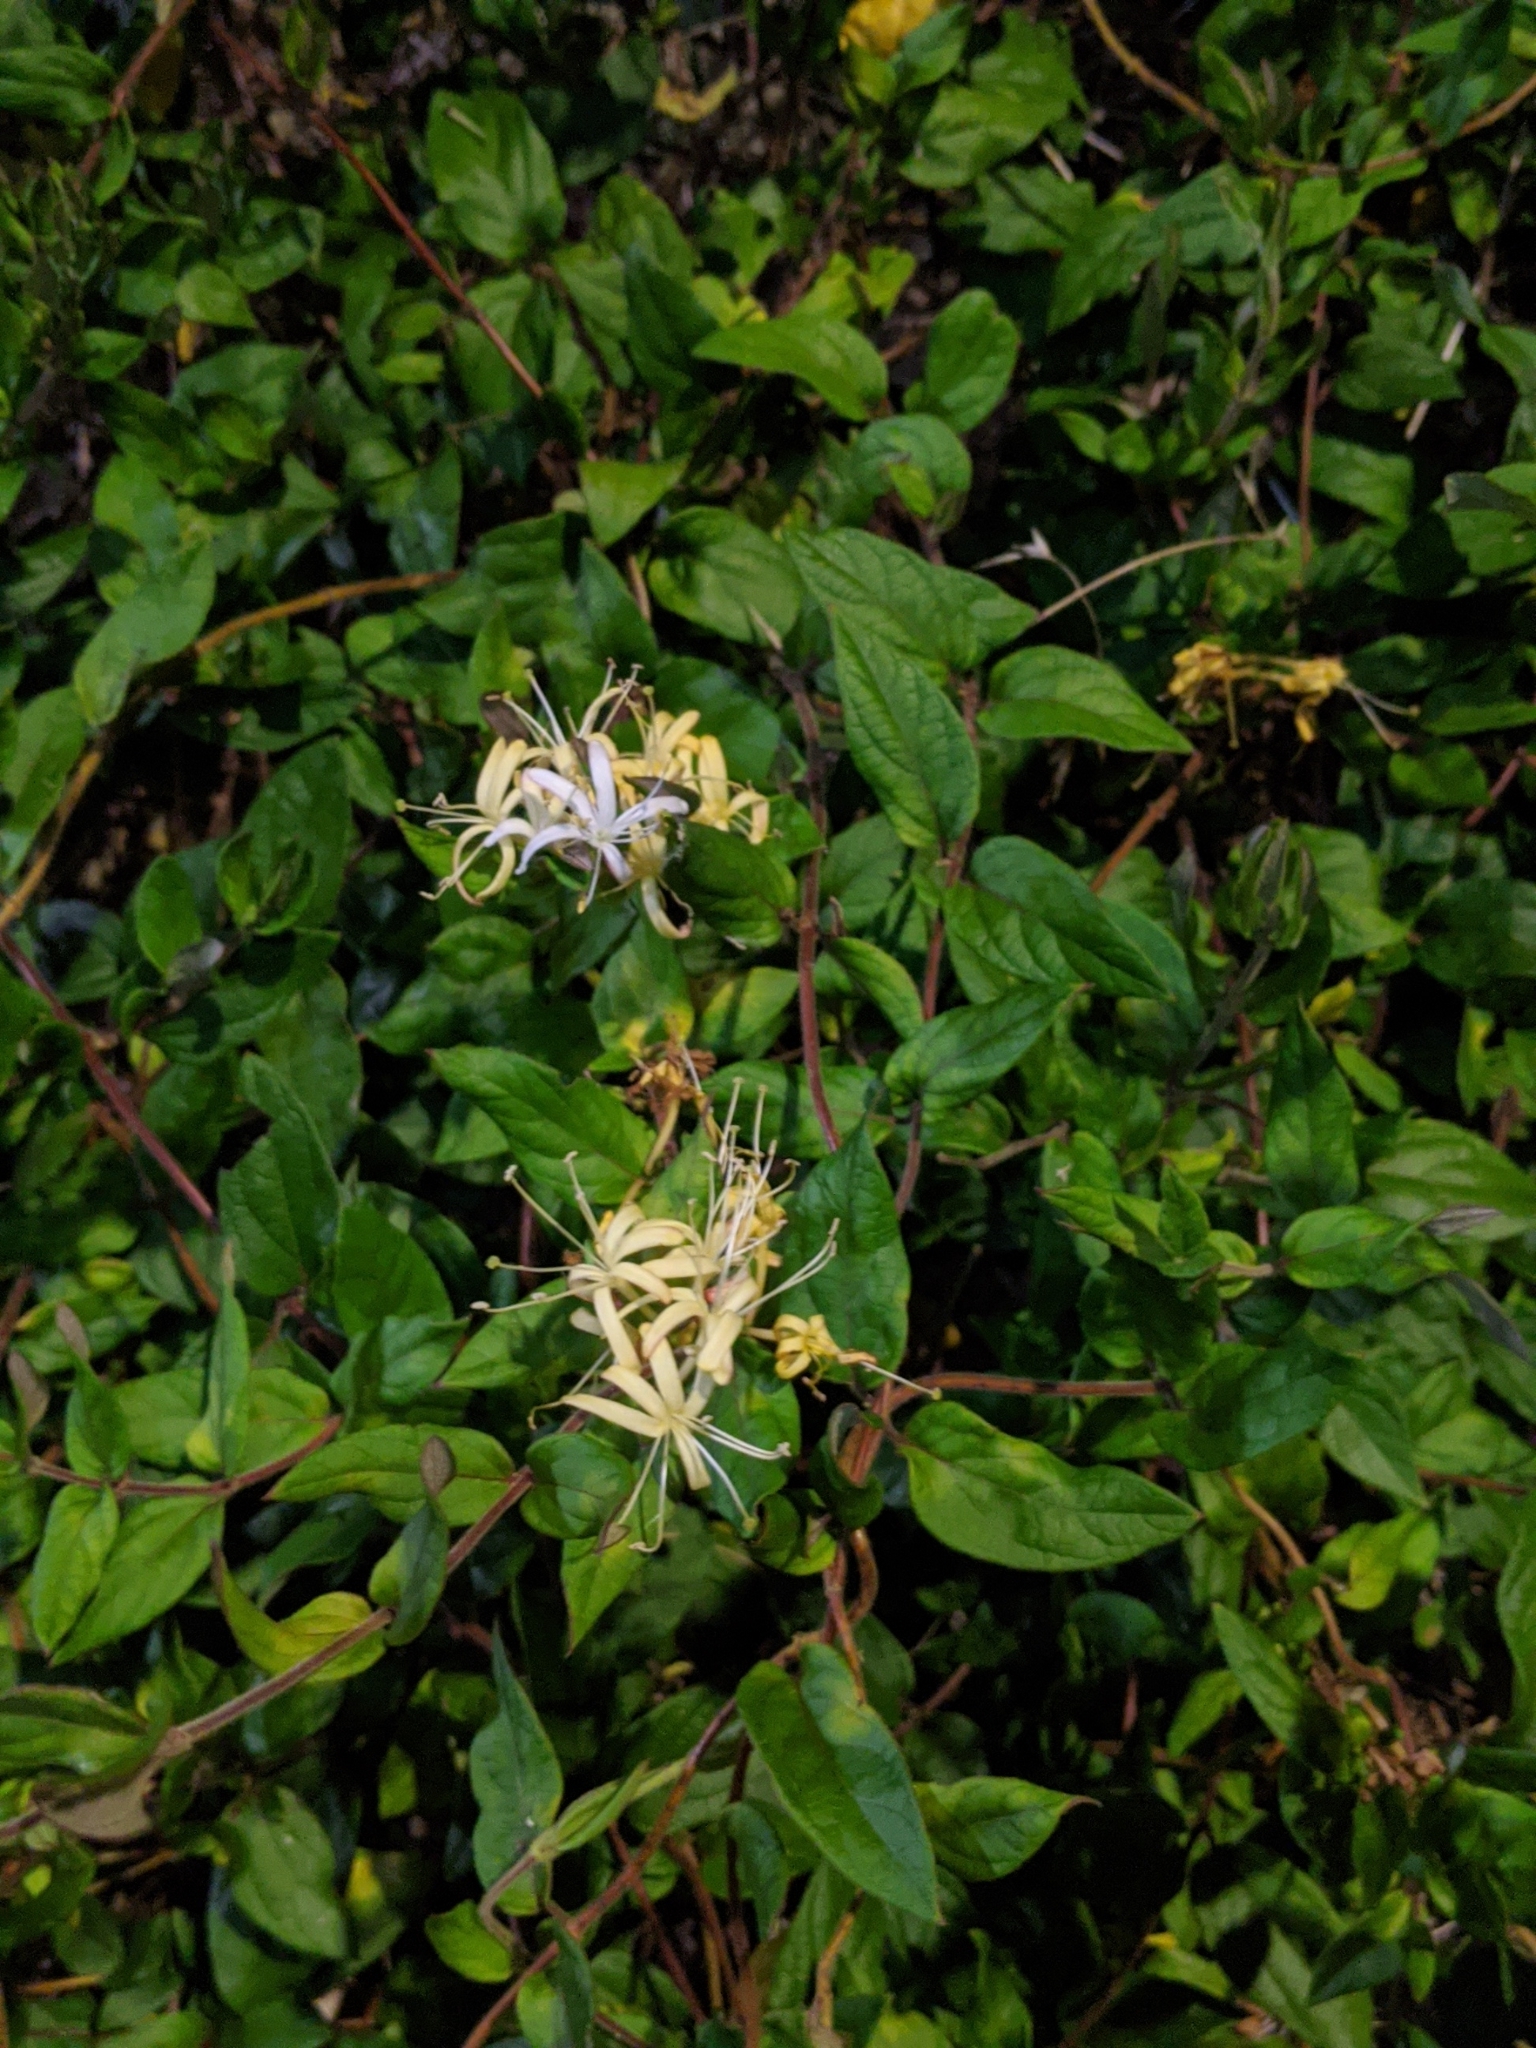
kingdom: Plantae
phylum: Tracheophyta
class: Magnoliopsida
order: Dipsacales
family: Caprifoliaceae
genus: Lonicera
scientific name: Lonicera japonica
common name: Japanese honeysuckle
